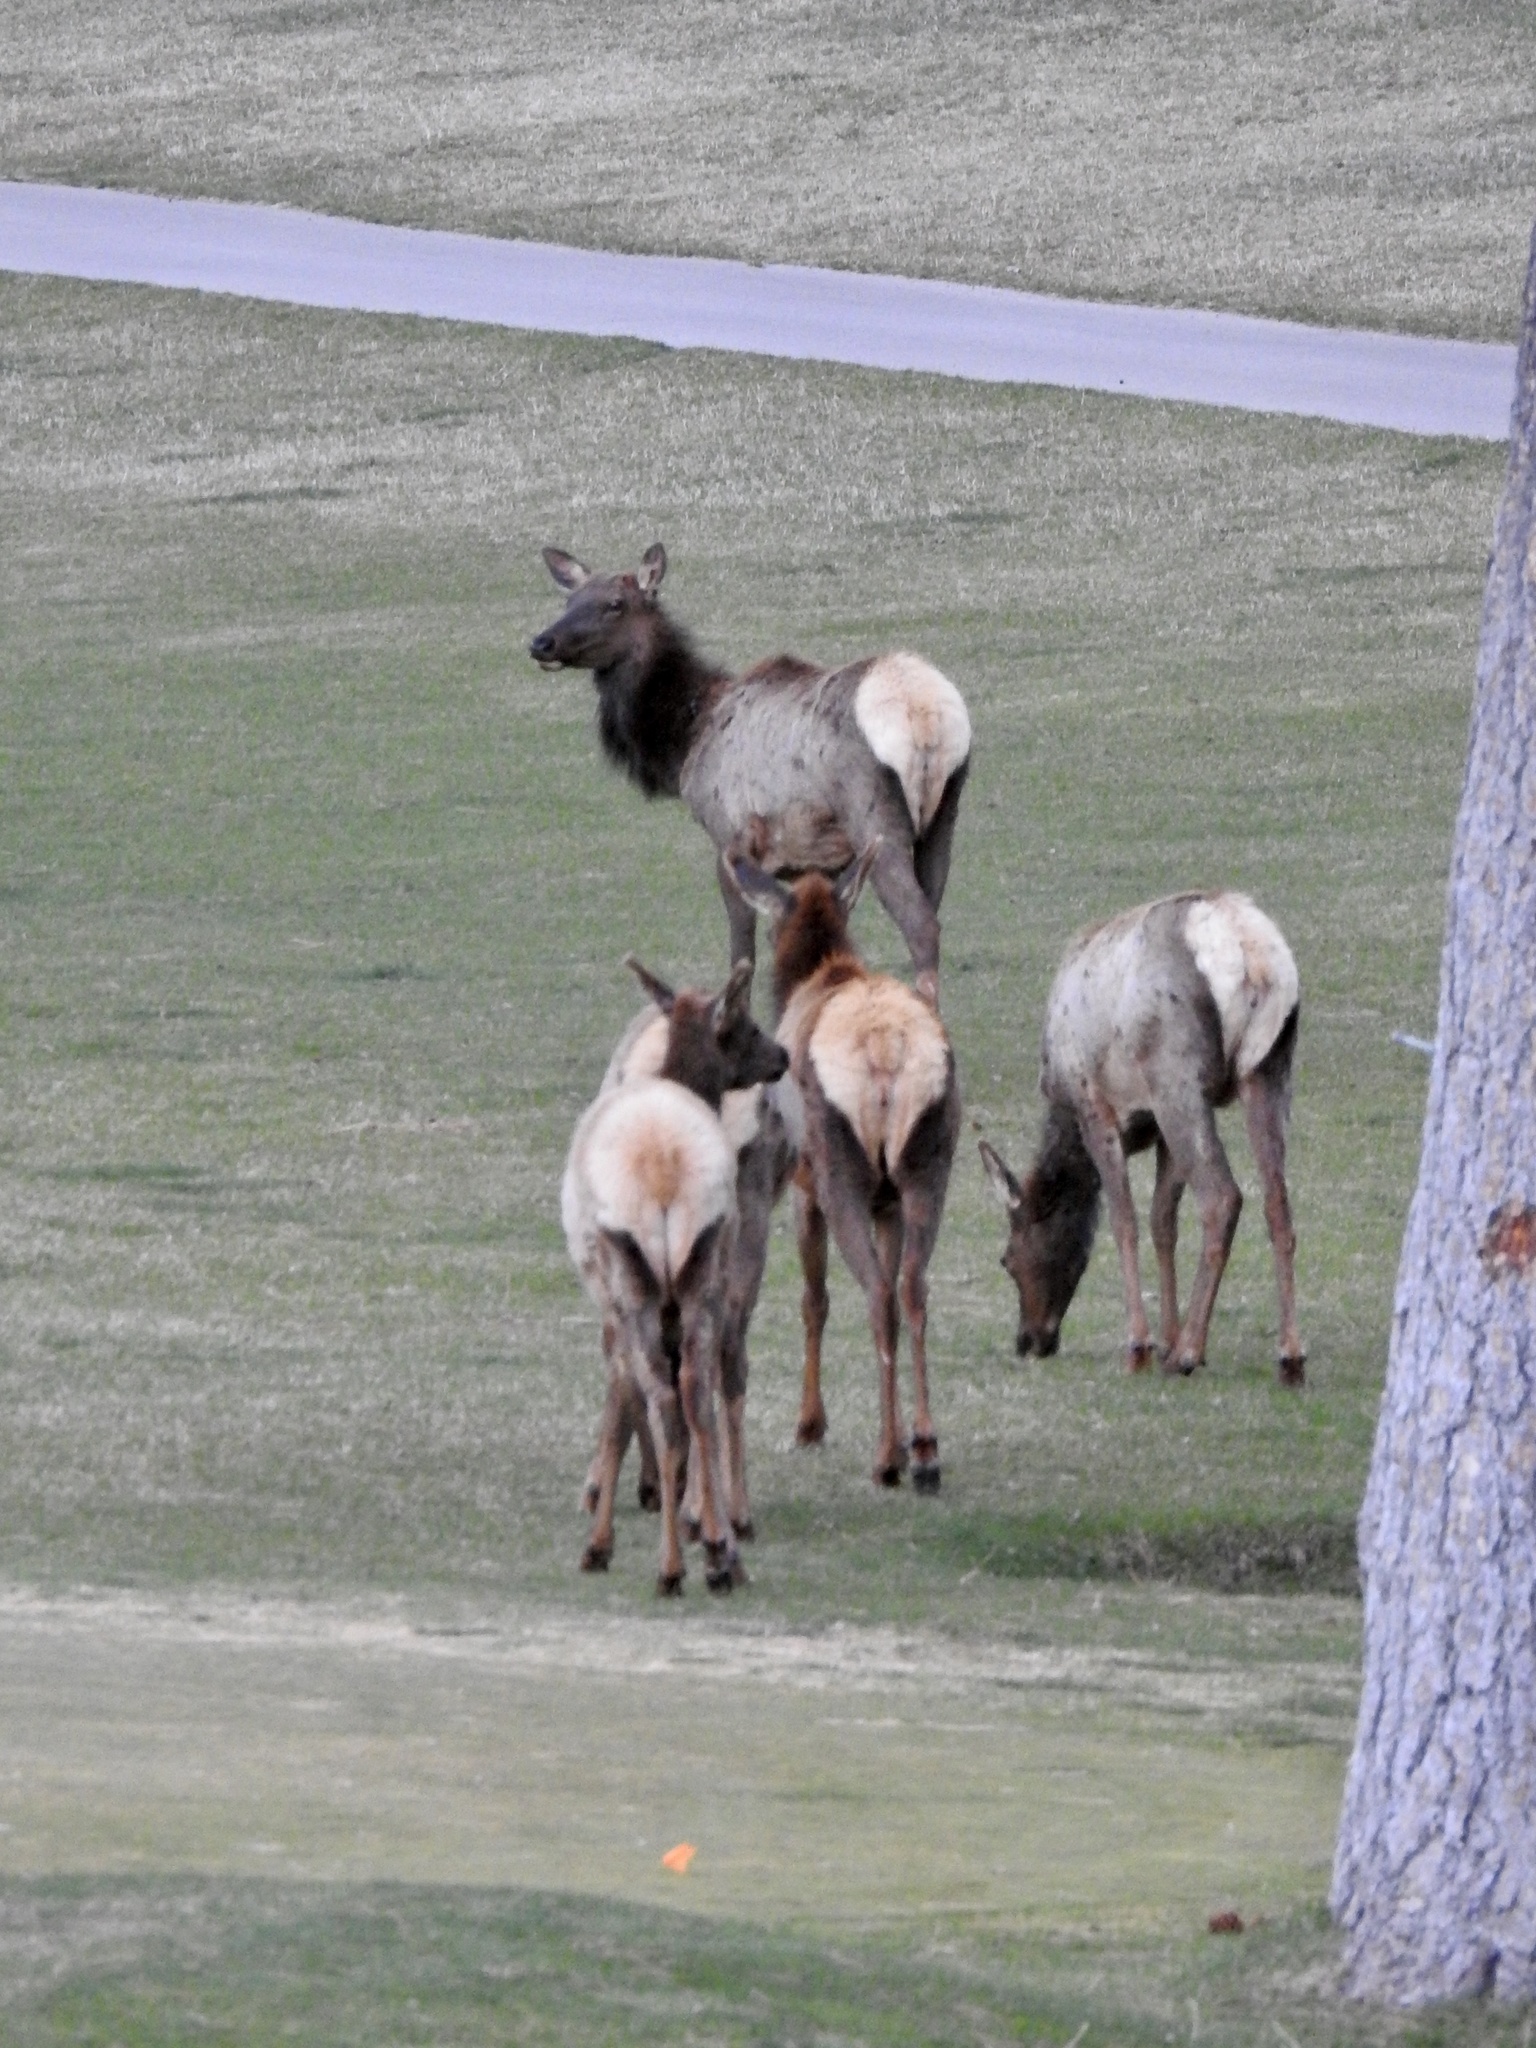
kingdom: Animalia
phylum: Chordata
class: Mammalia
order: Artiodactyla
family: Cervidae
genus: Cervus
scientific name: Cervus elaphus
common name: Red deer
